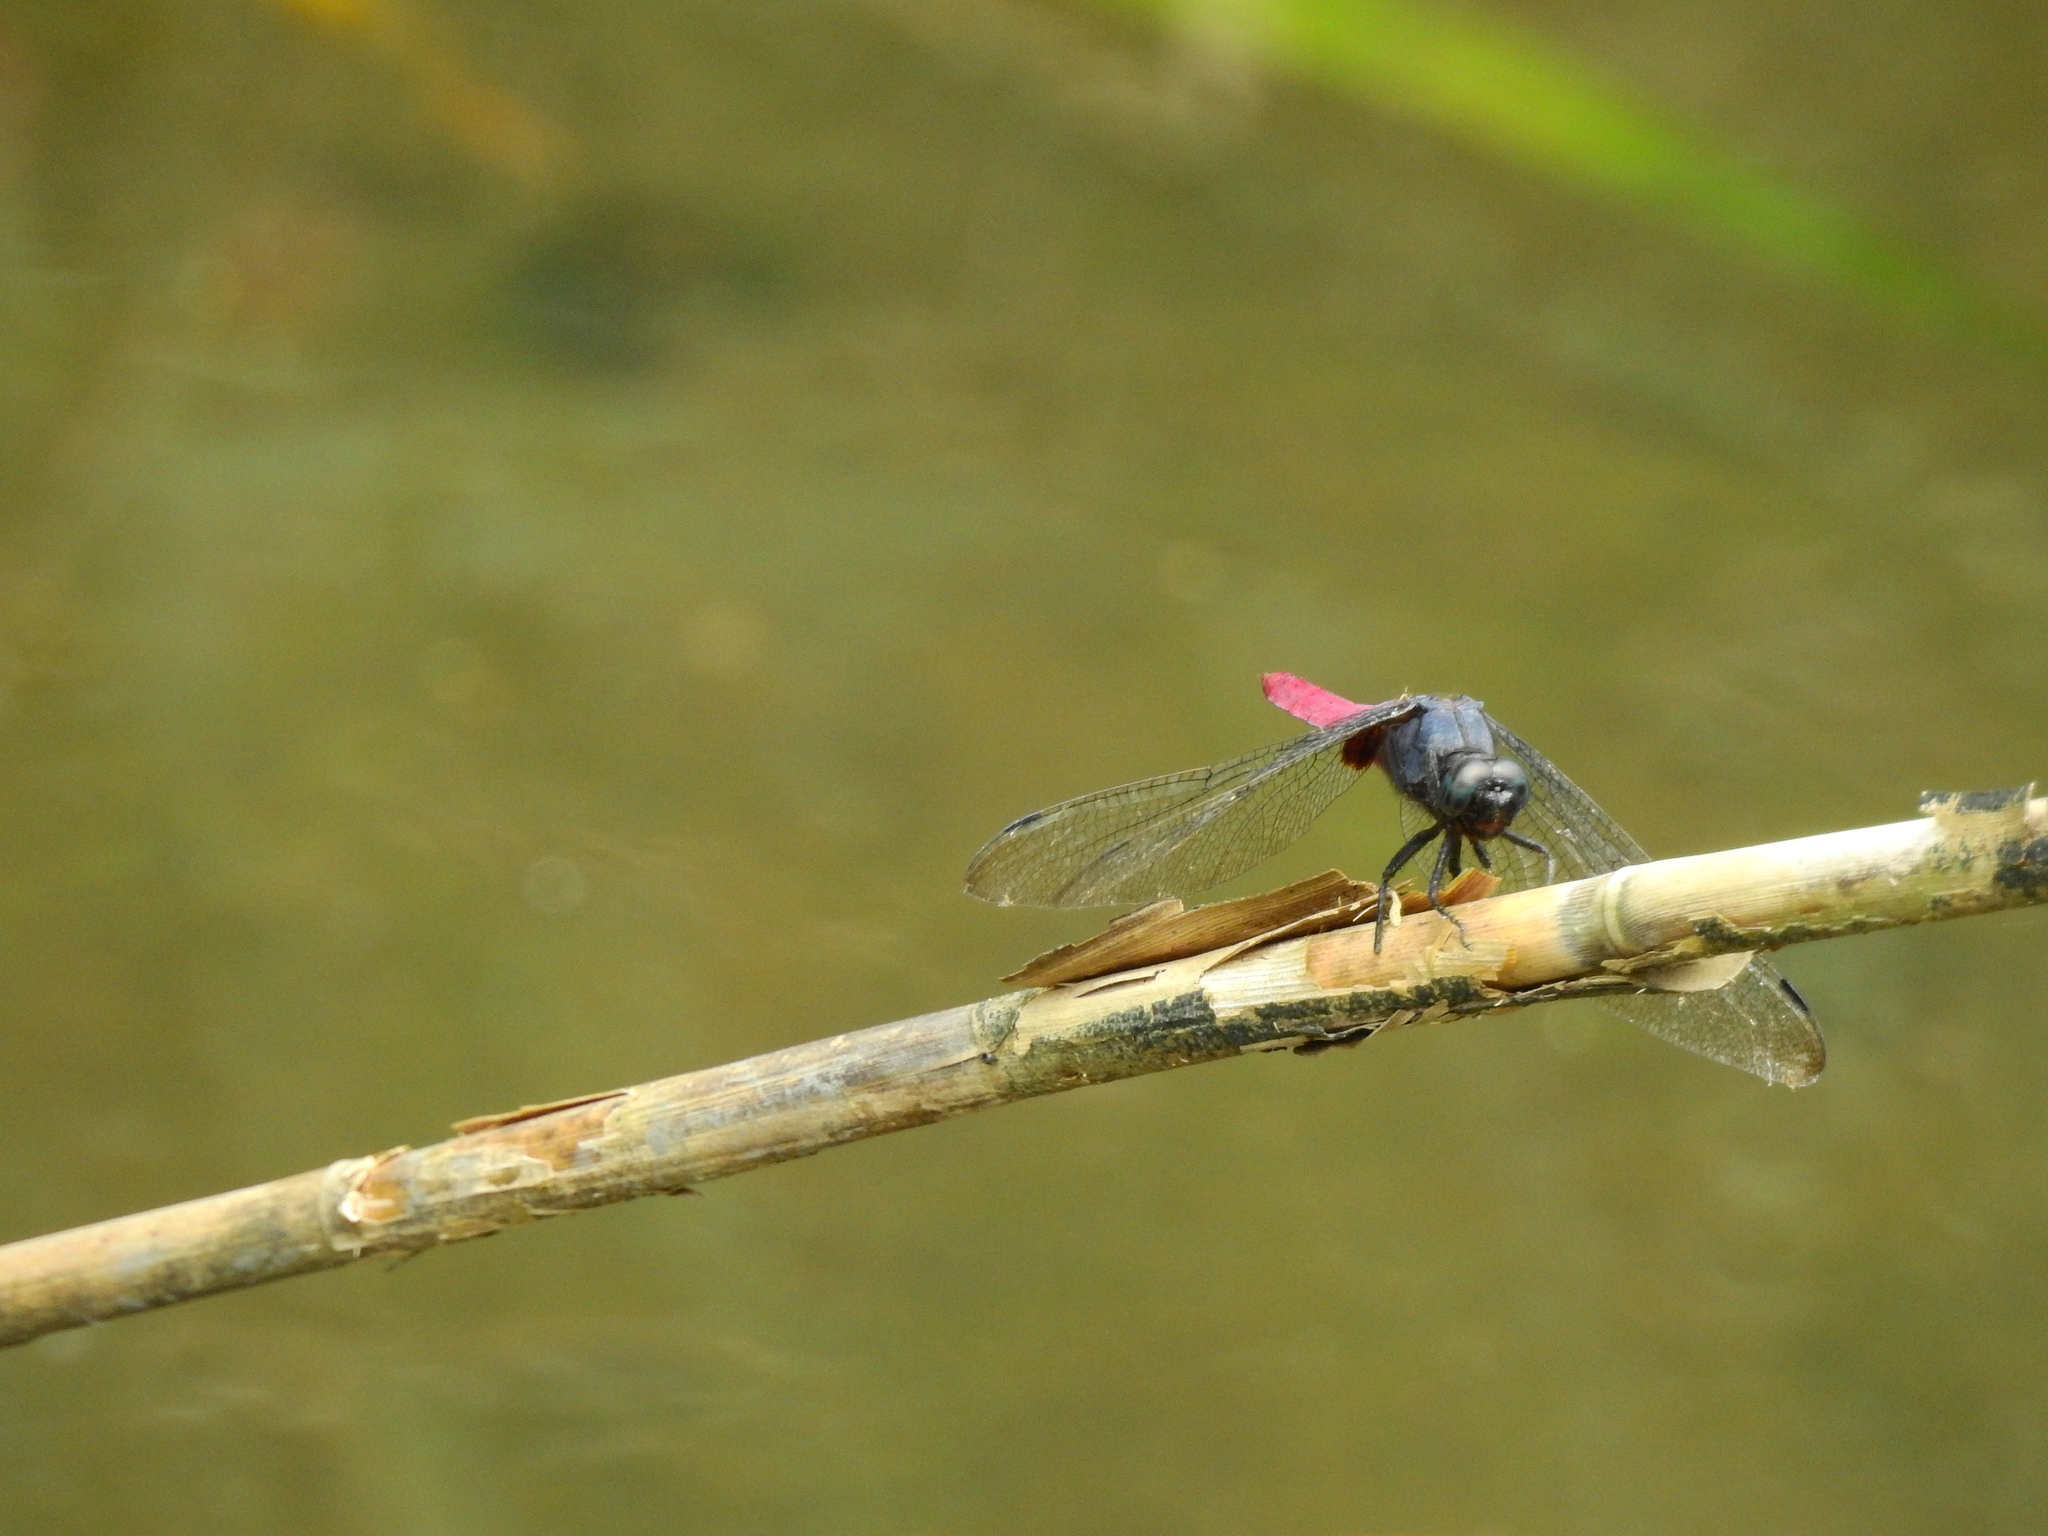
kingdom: Animalia
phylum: Arthropoda
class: Insecta
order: Odonata
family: Libellulidae
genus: Orthetrum
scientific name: Orthetrum pruinosum
